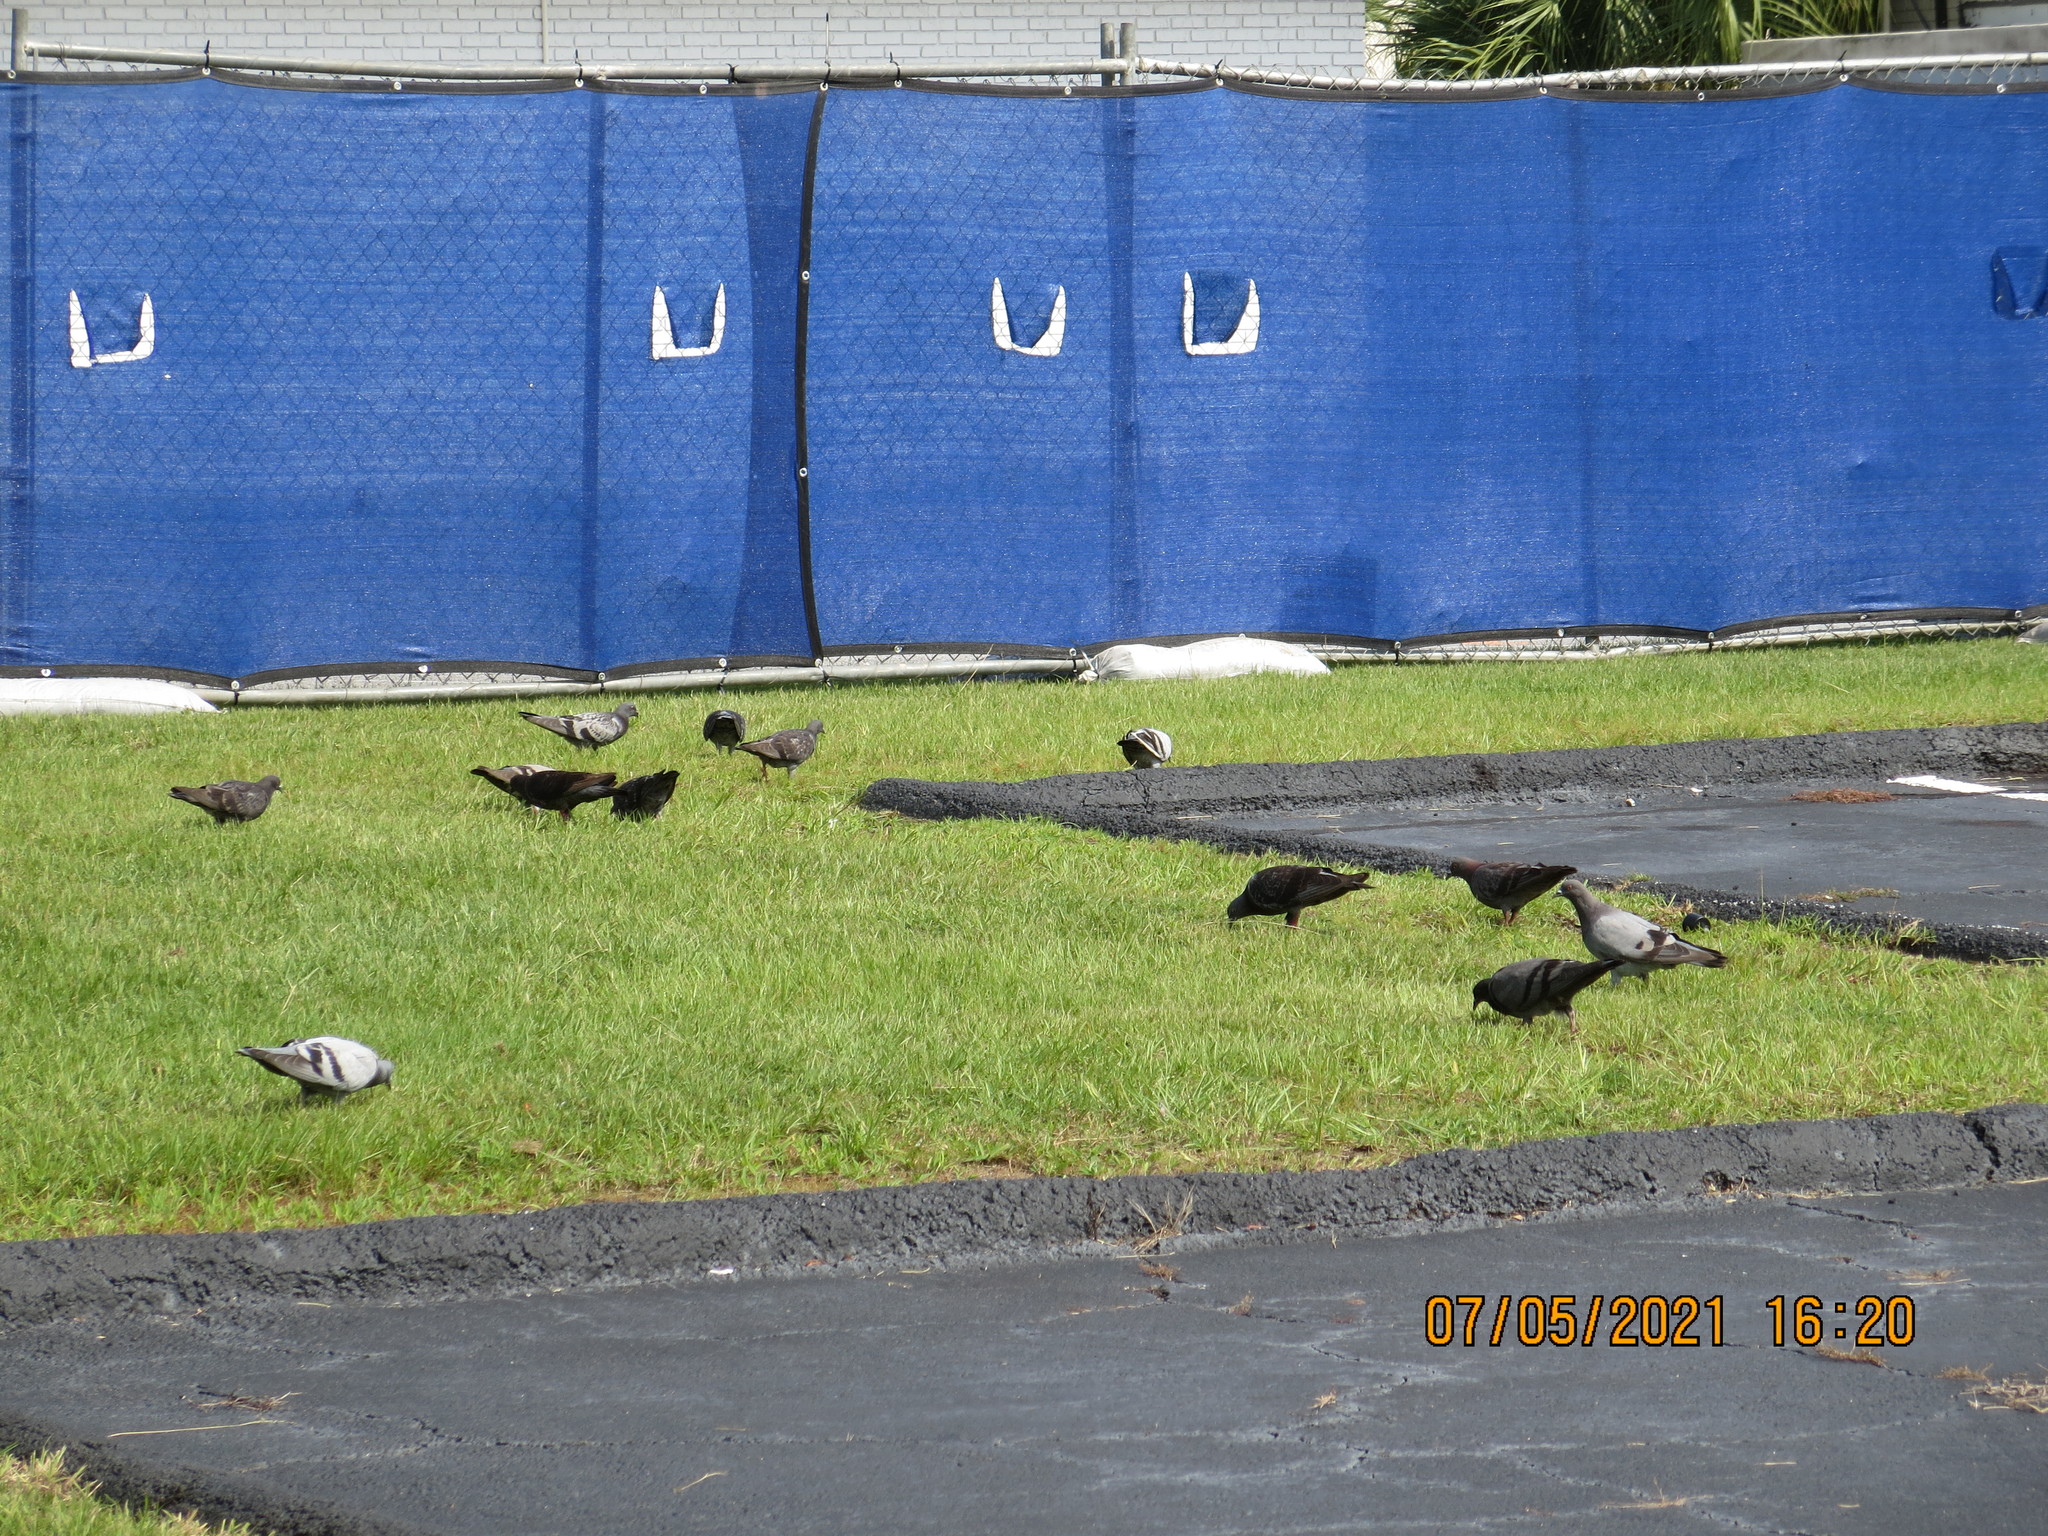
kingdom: Animalia
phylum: Chordata
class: Aves
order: Columbiformes
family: Columbidae
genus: Columba
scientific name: Columba livia
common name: Rock pigeon
